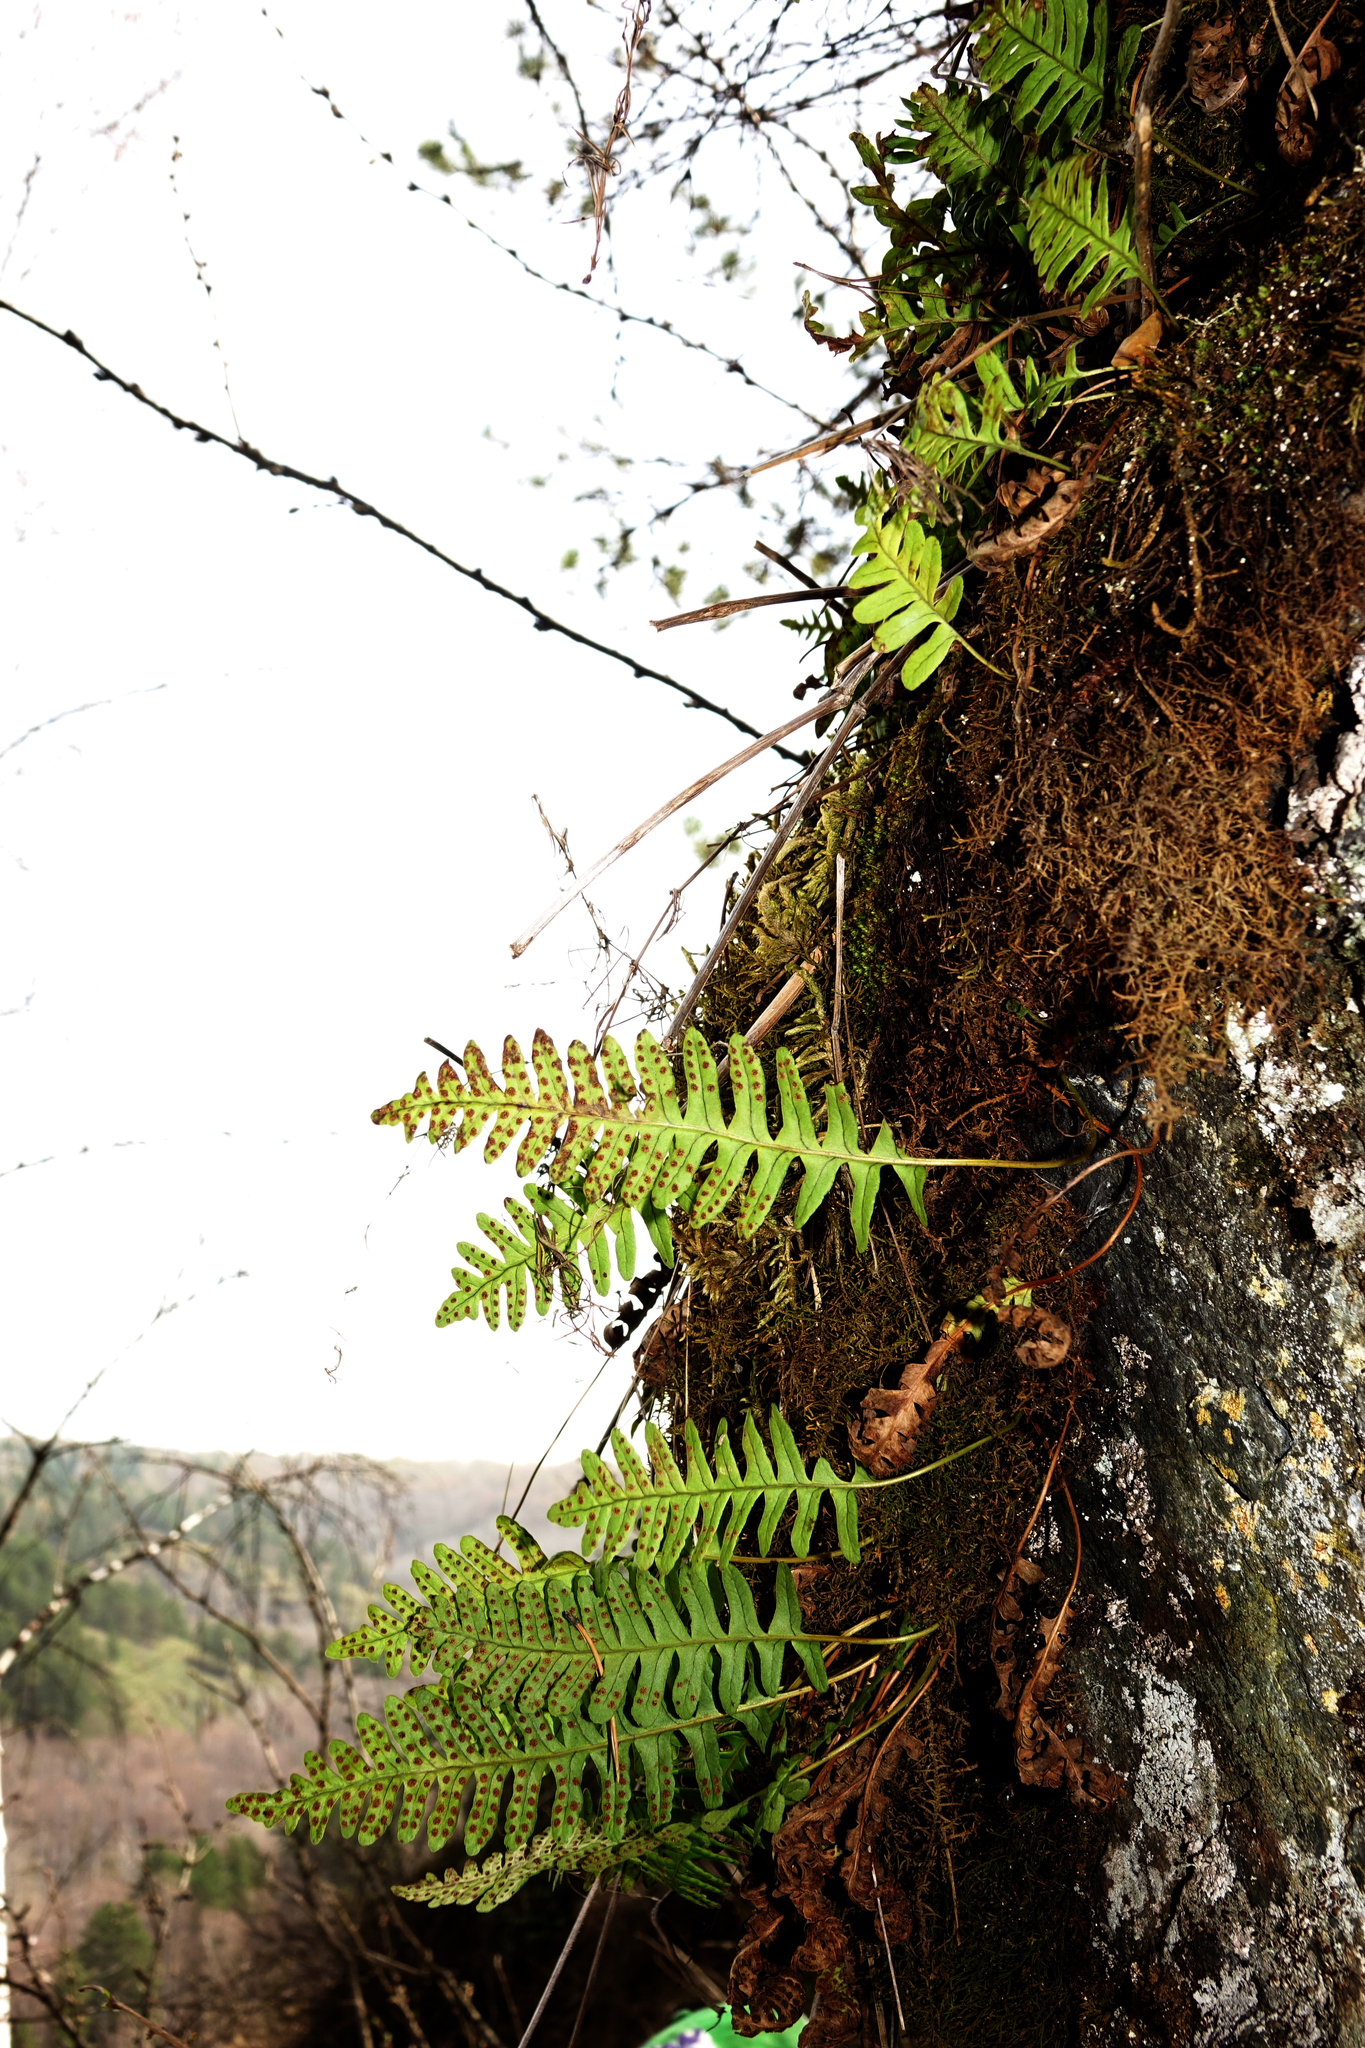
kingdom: Plantae
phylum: Tracheophyta
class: Polypodiopsida
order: Polypodiales
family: Polypodiaceae
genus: Polypodium
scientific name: Polypodium sibiricum
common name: Siberian polypody
